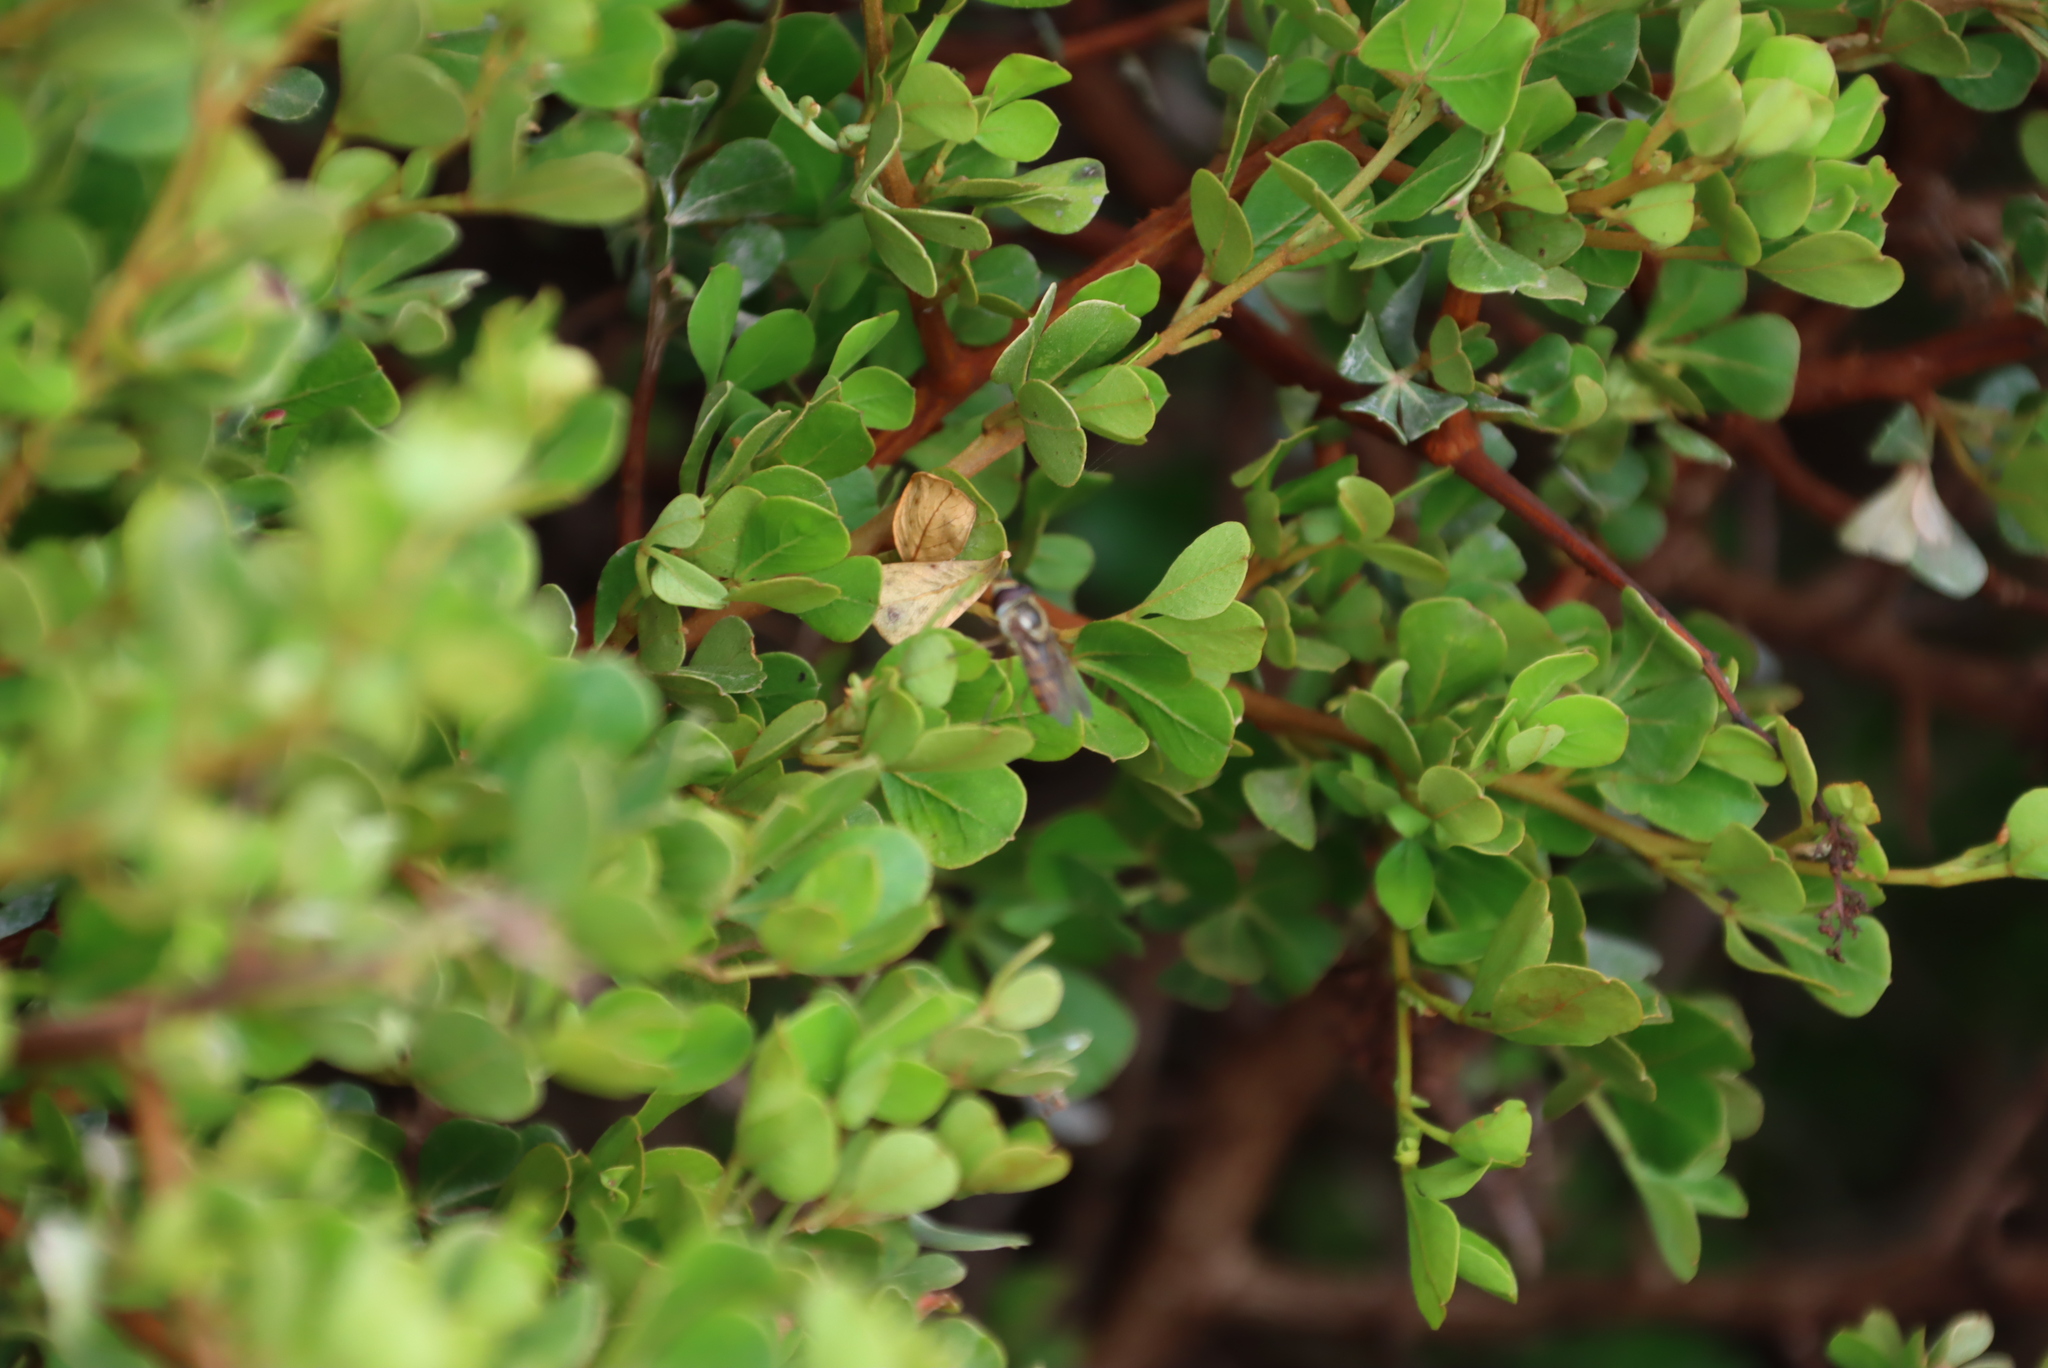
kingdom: Plantae
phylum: Tracheophyta
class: Magnoliopsida
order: Sapindales
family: Anacardiaceae
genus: Searsia
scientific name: Searsia glauca
